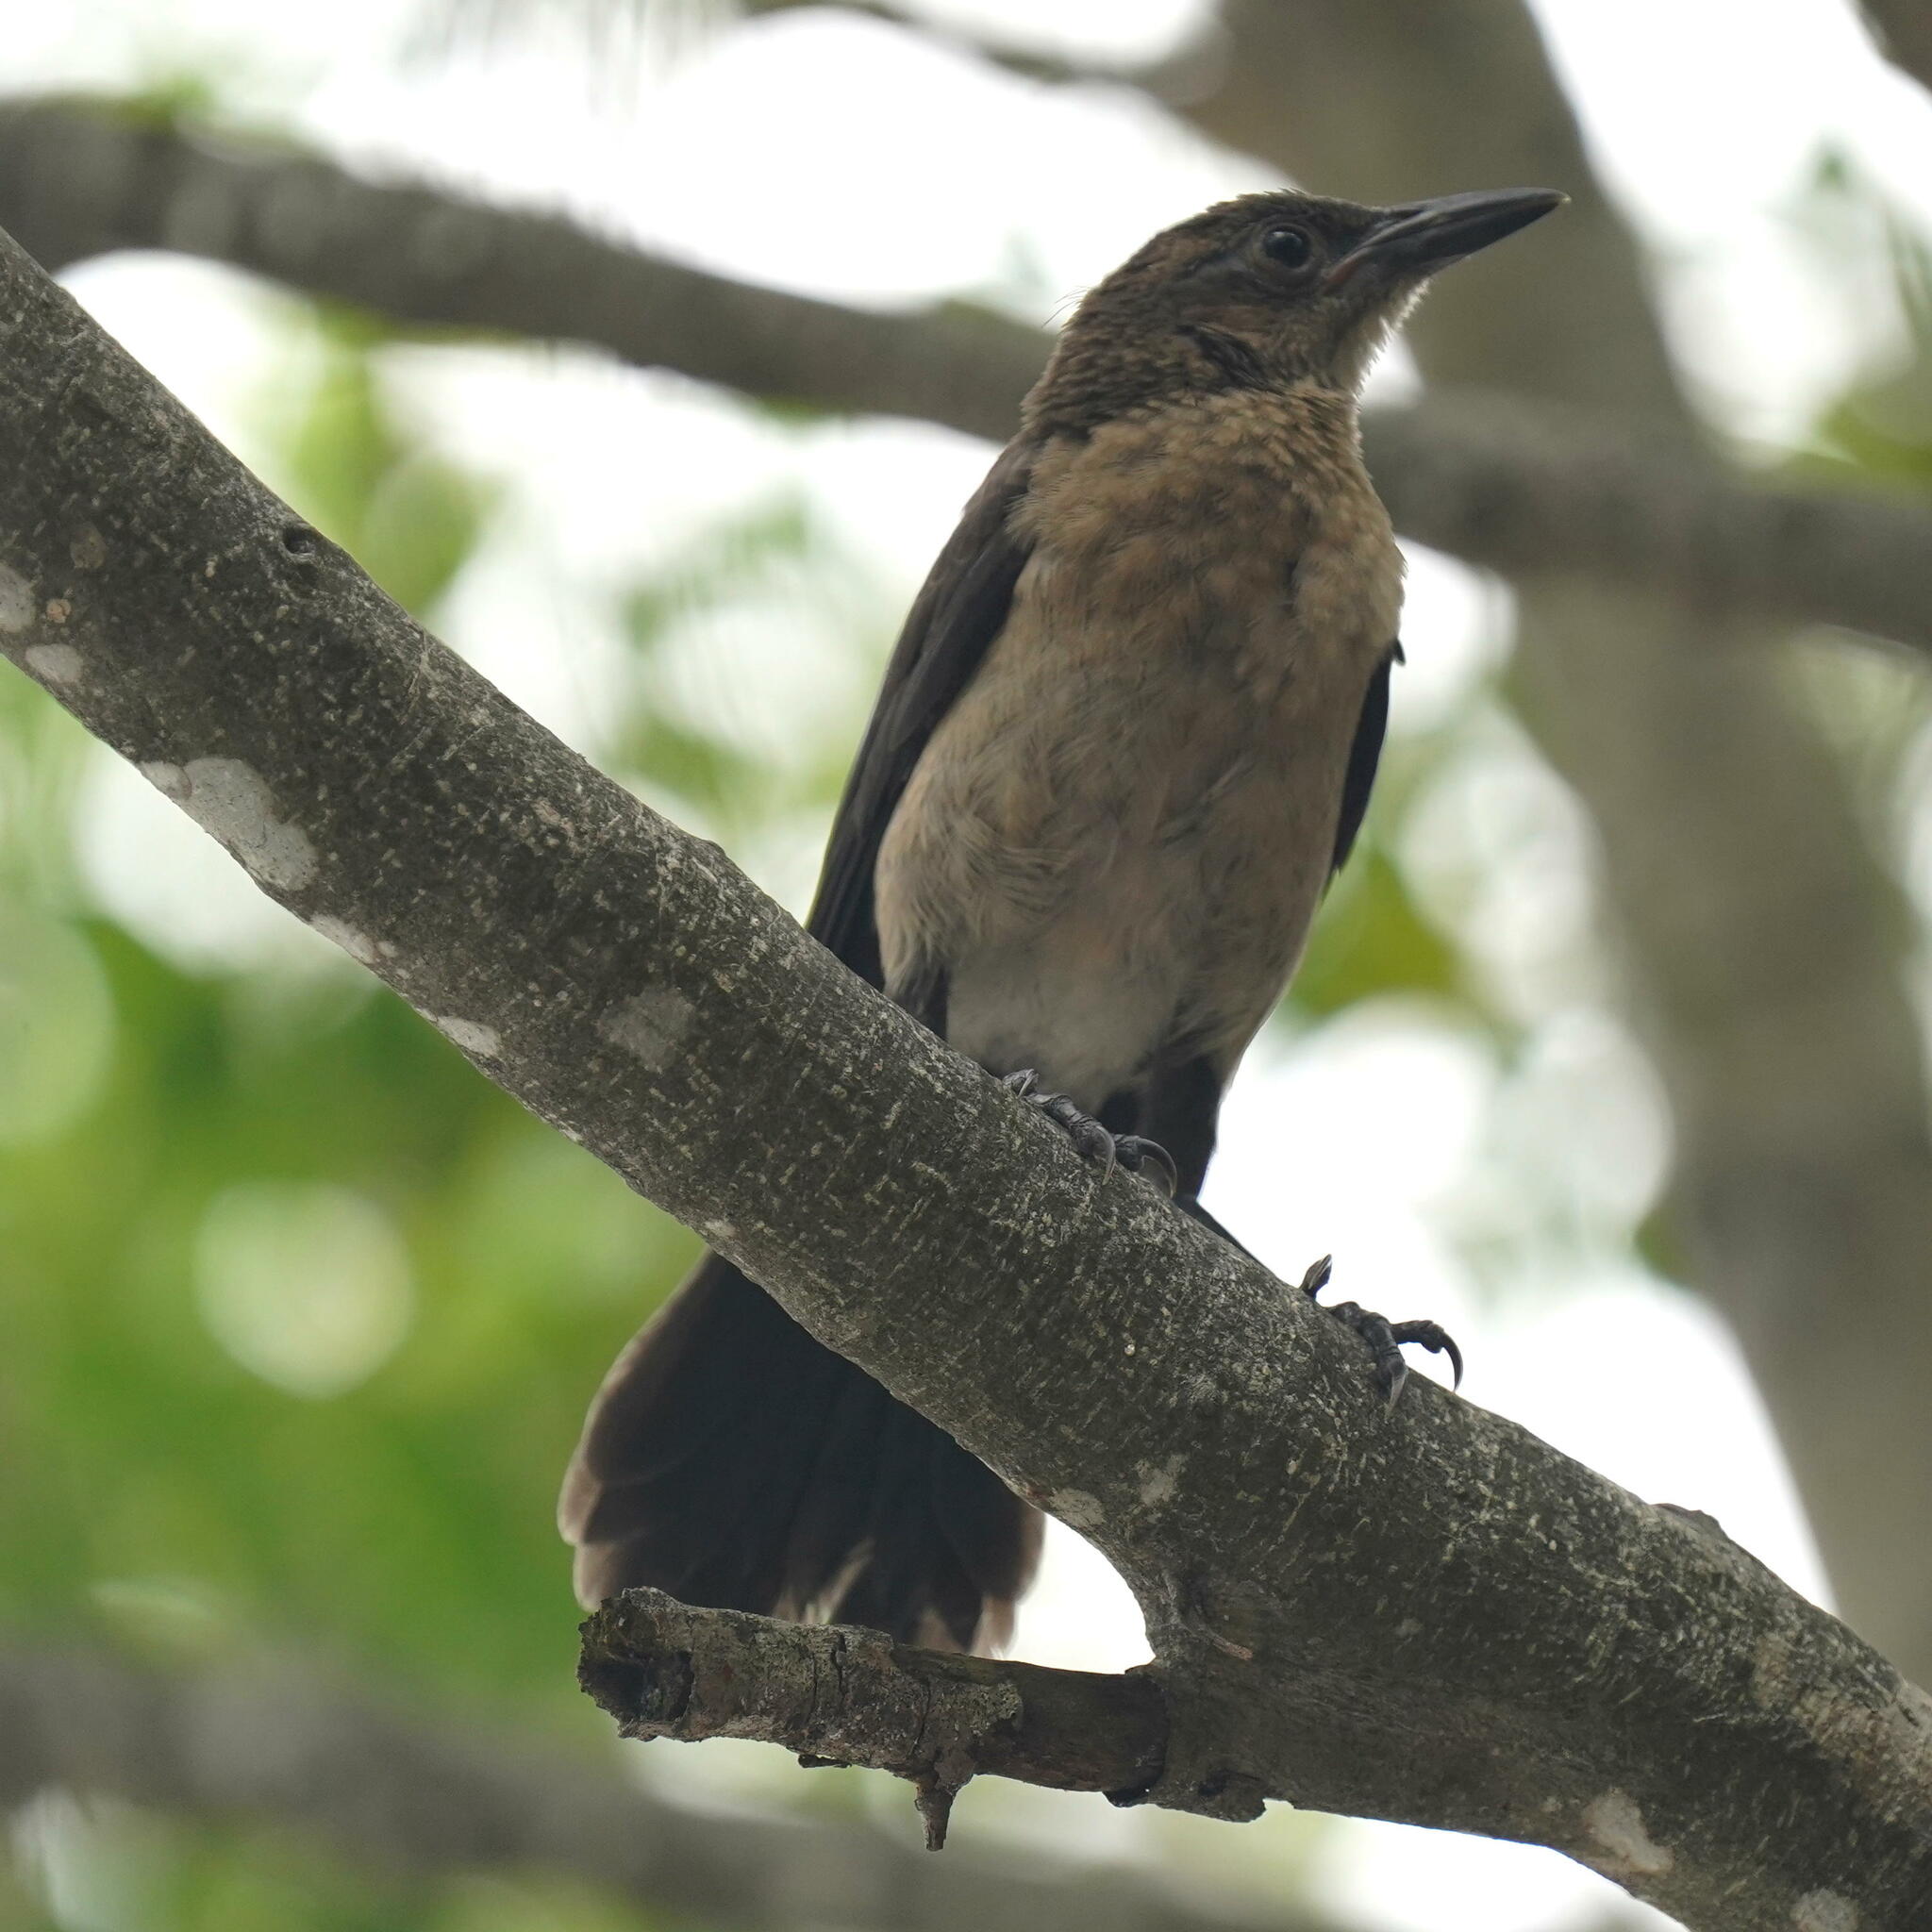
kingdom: Animalia
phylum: Chordata
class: Aves
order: Passeriformes
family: Icteridae
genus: Quiscalus
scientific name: Quiscalus mexicanus
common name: Great-tailed grackle
